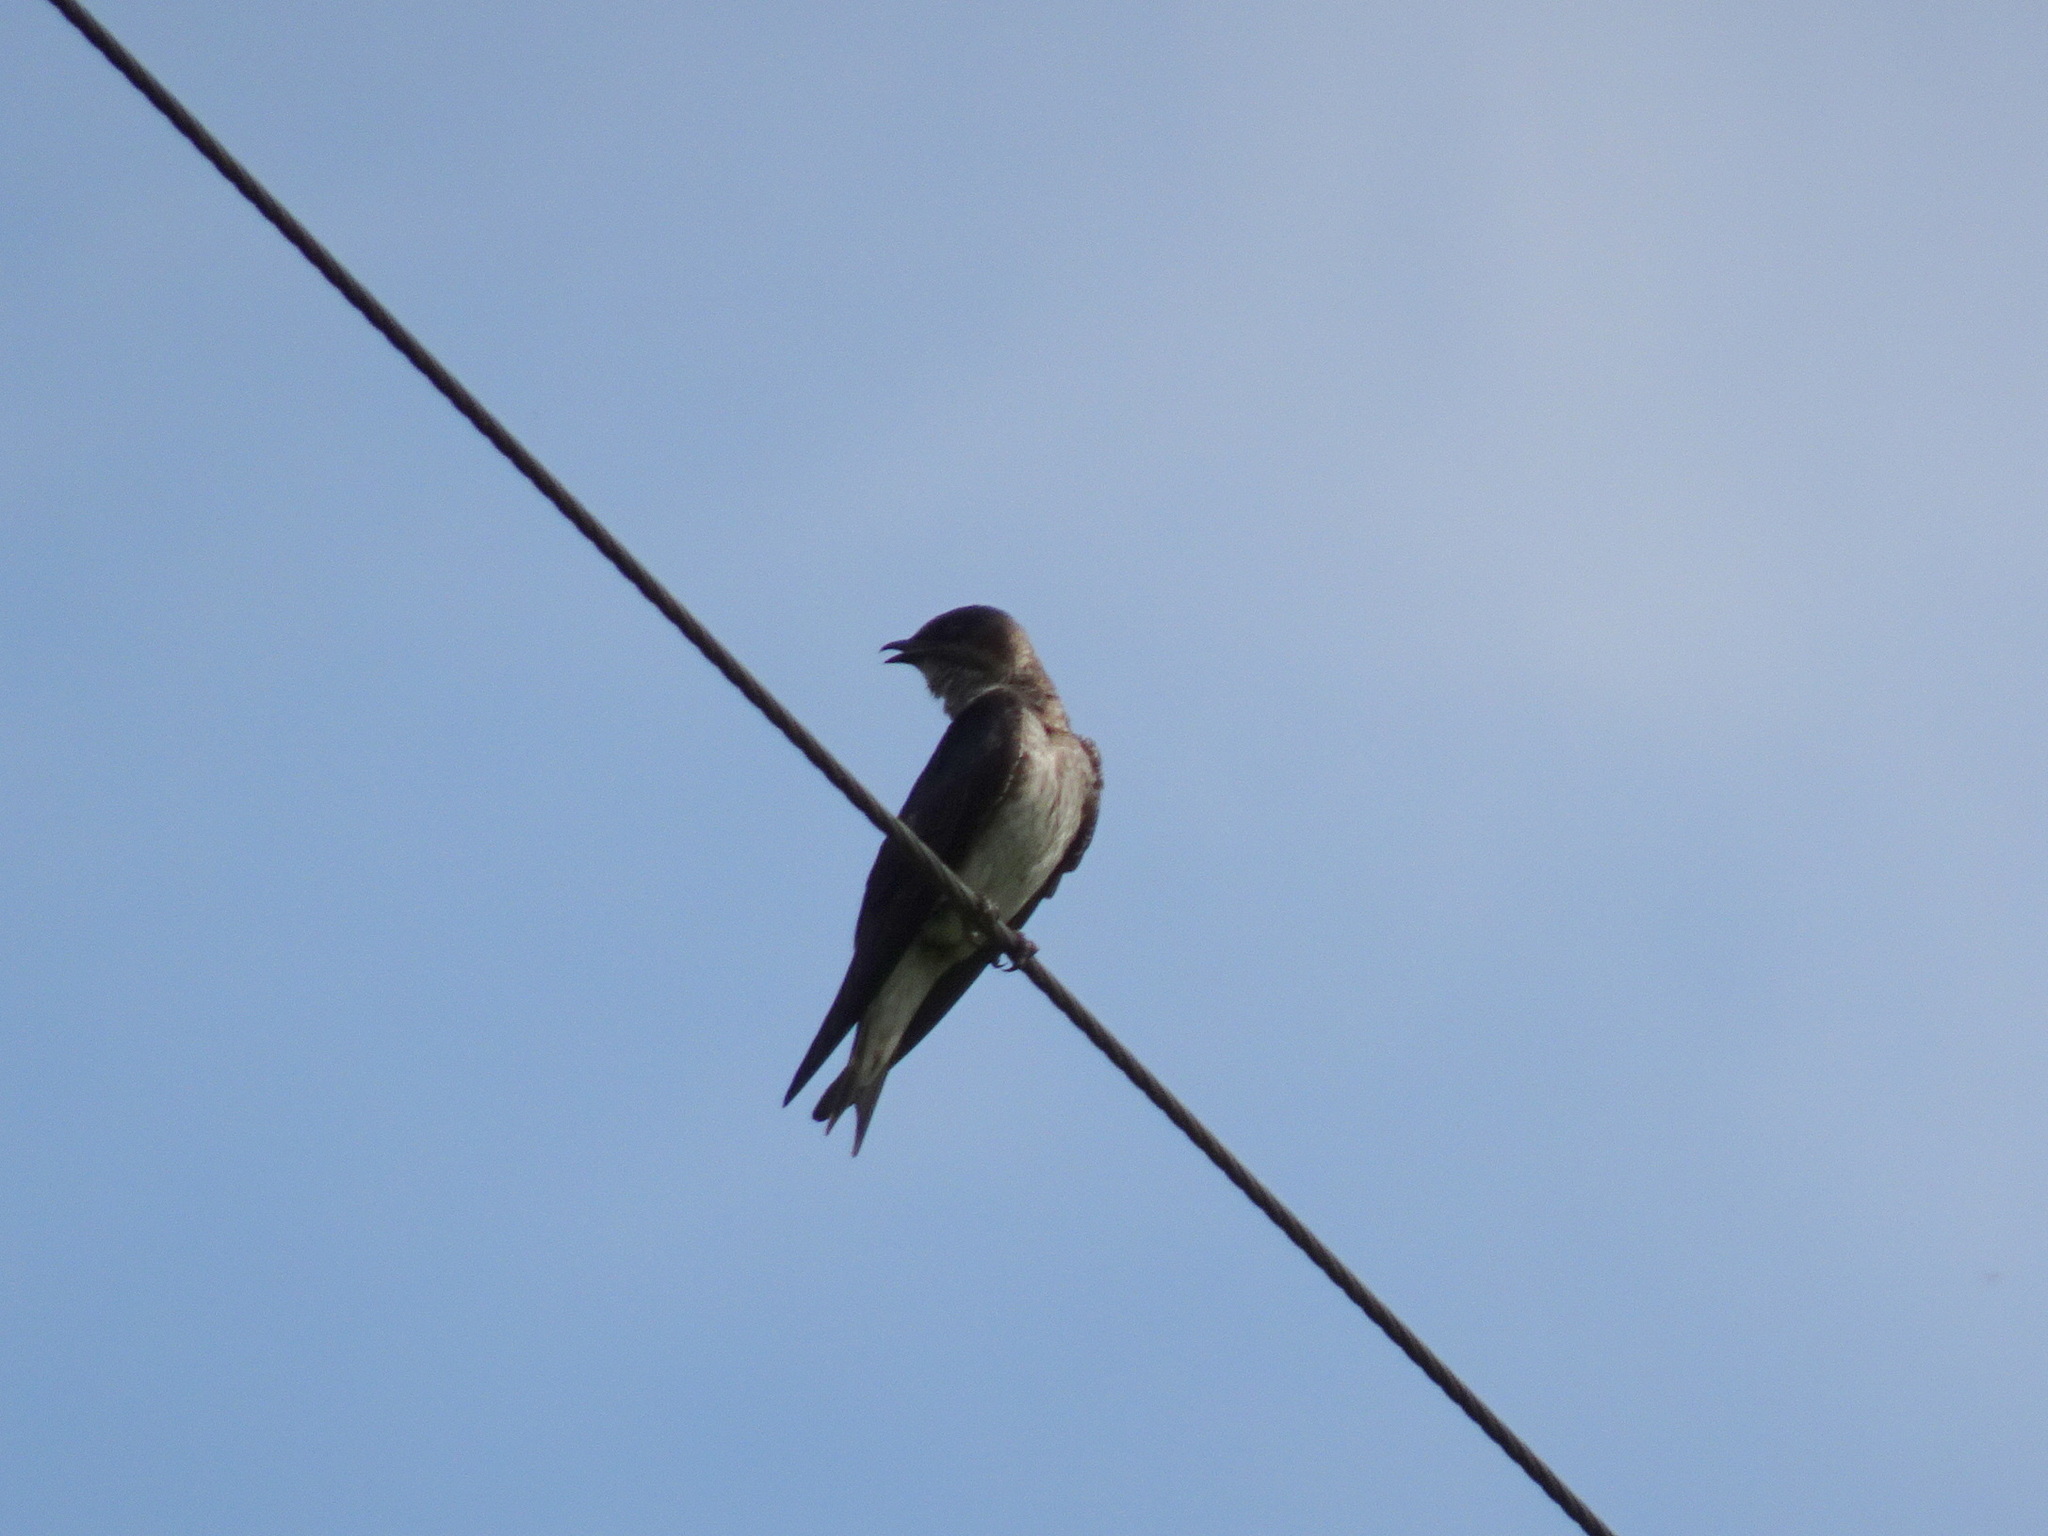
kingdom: Animalia
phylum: Chordata
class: Aves
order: Passeriformes
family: Hirundinidae
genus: Progne
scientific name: Progne subis
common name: Purple martin
